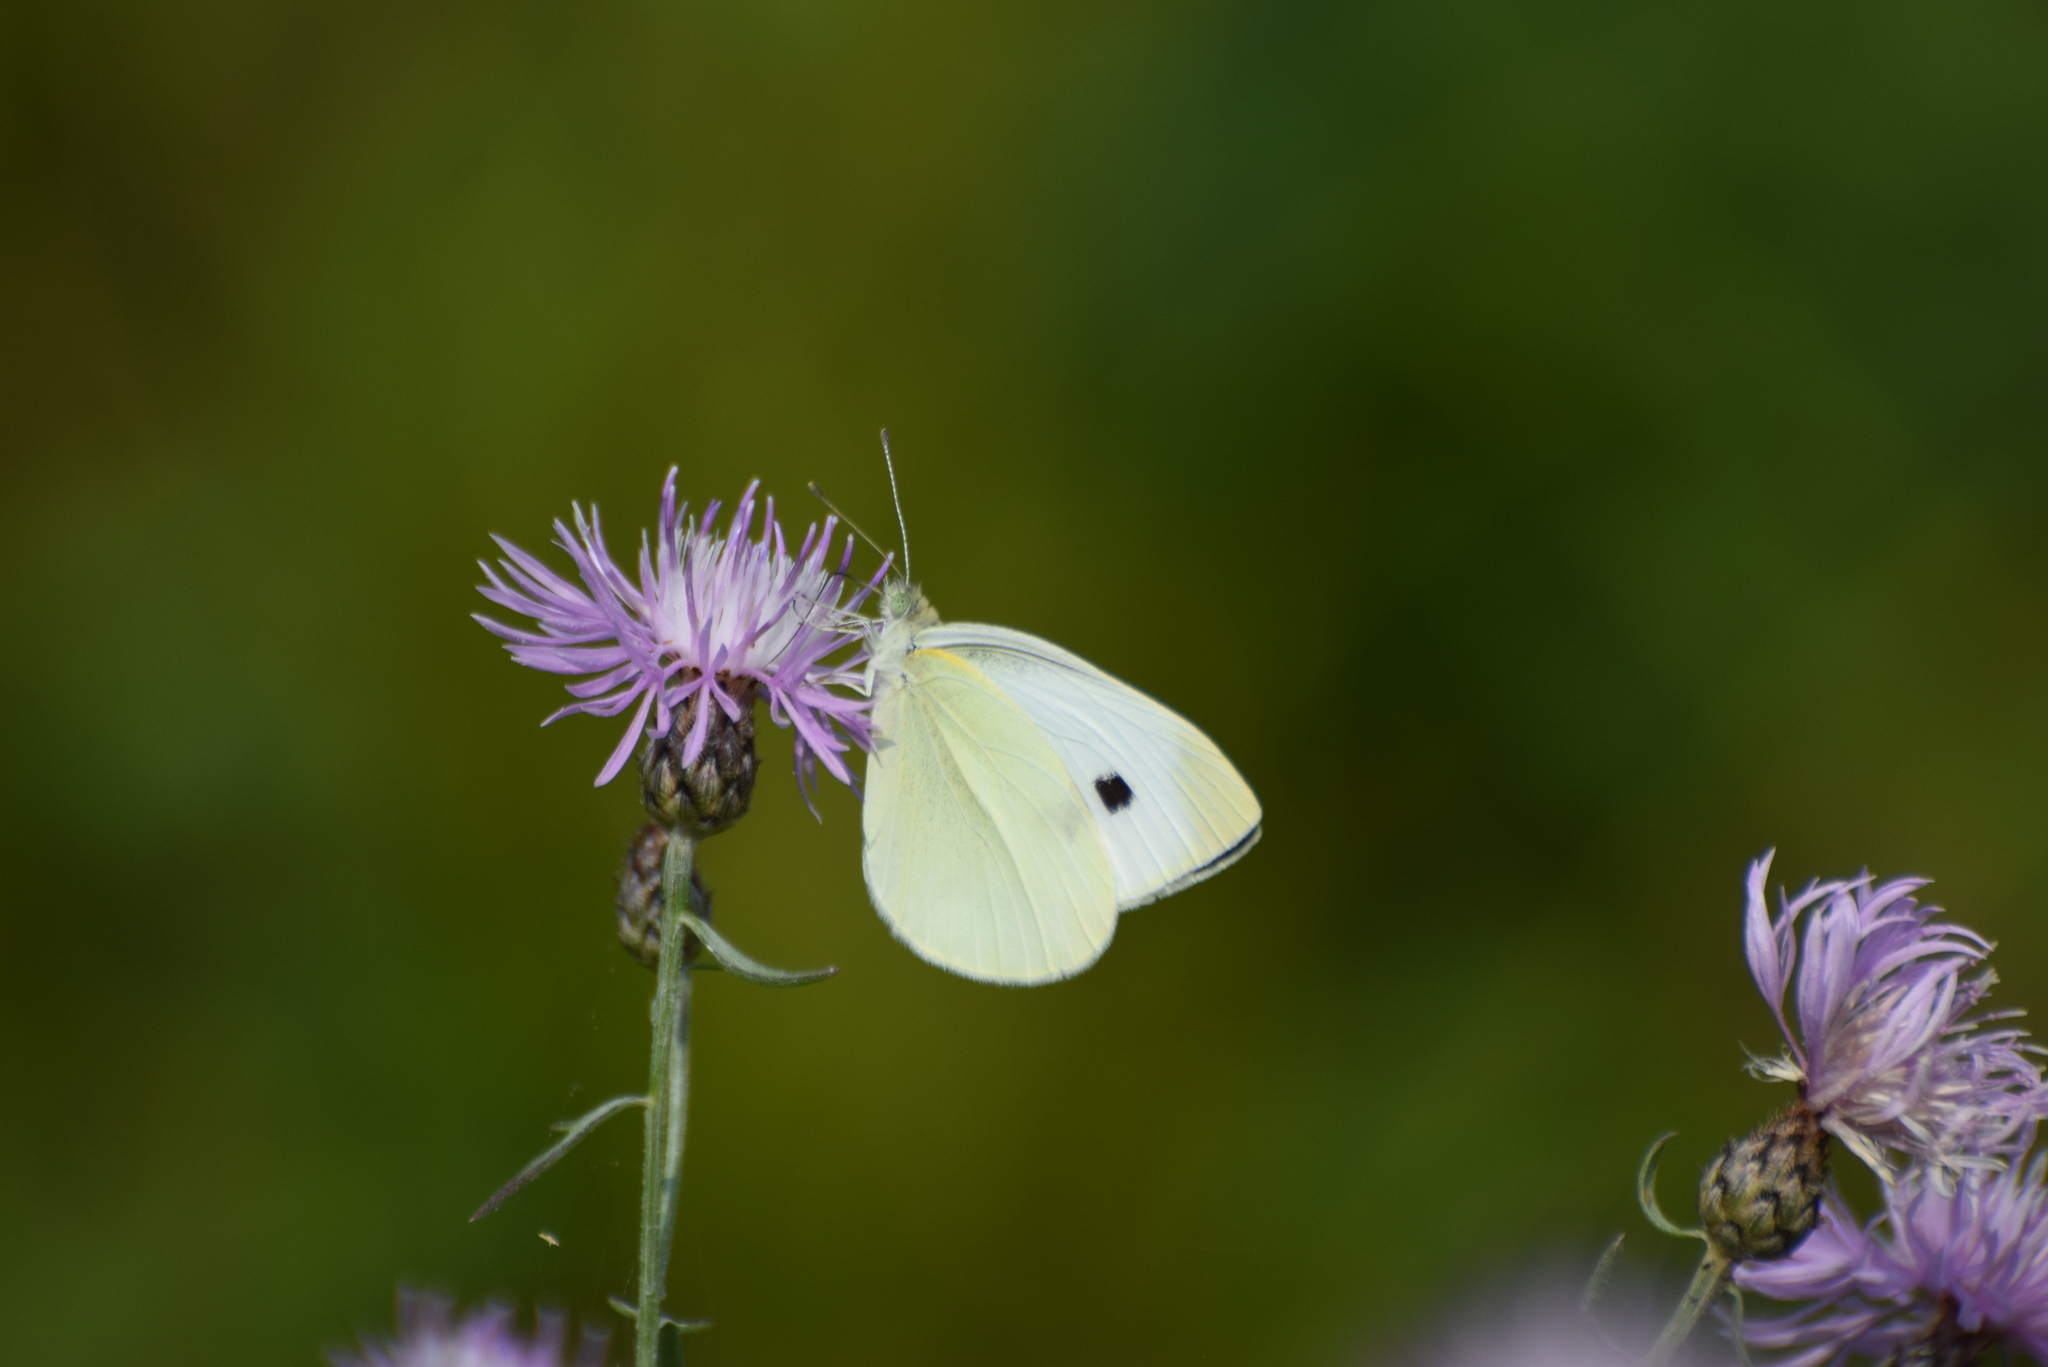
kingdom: Animalia
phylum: Arthropoda
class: Insecta
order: Lepidoptera
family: Pieridae
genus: Pieris
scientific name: Pieris rapae
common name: Small white
